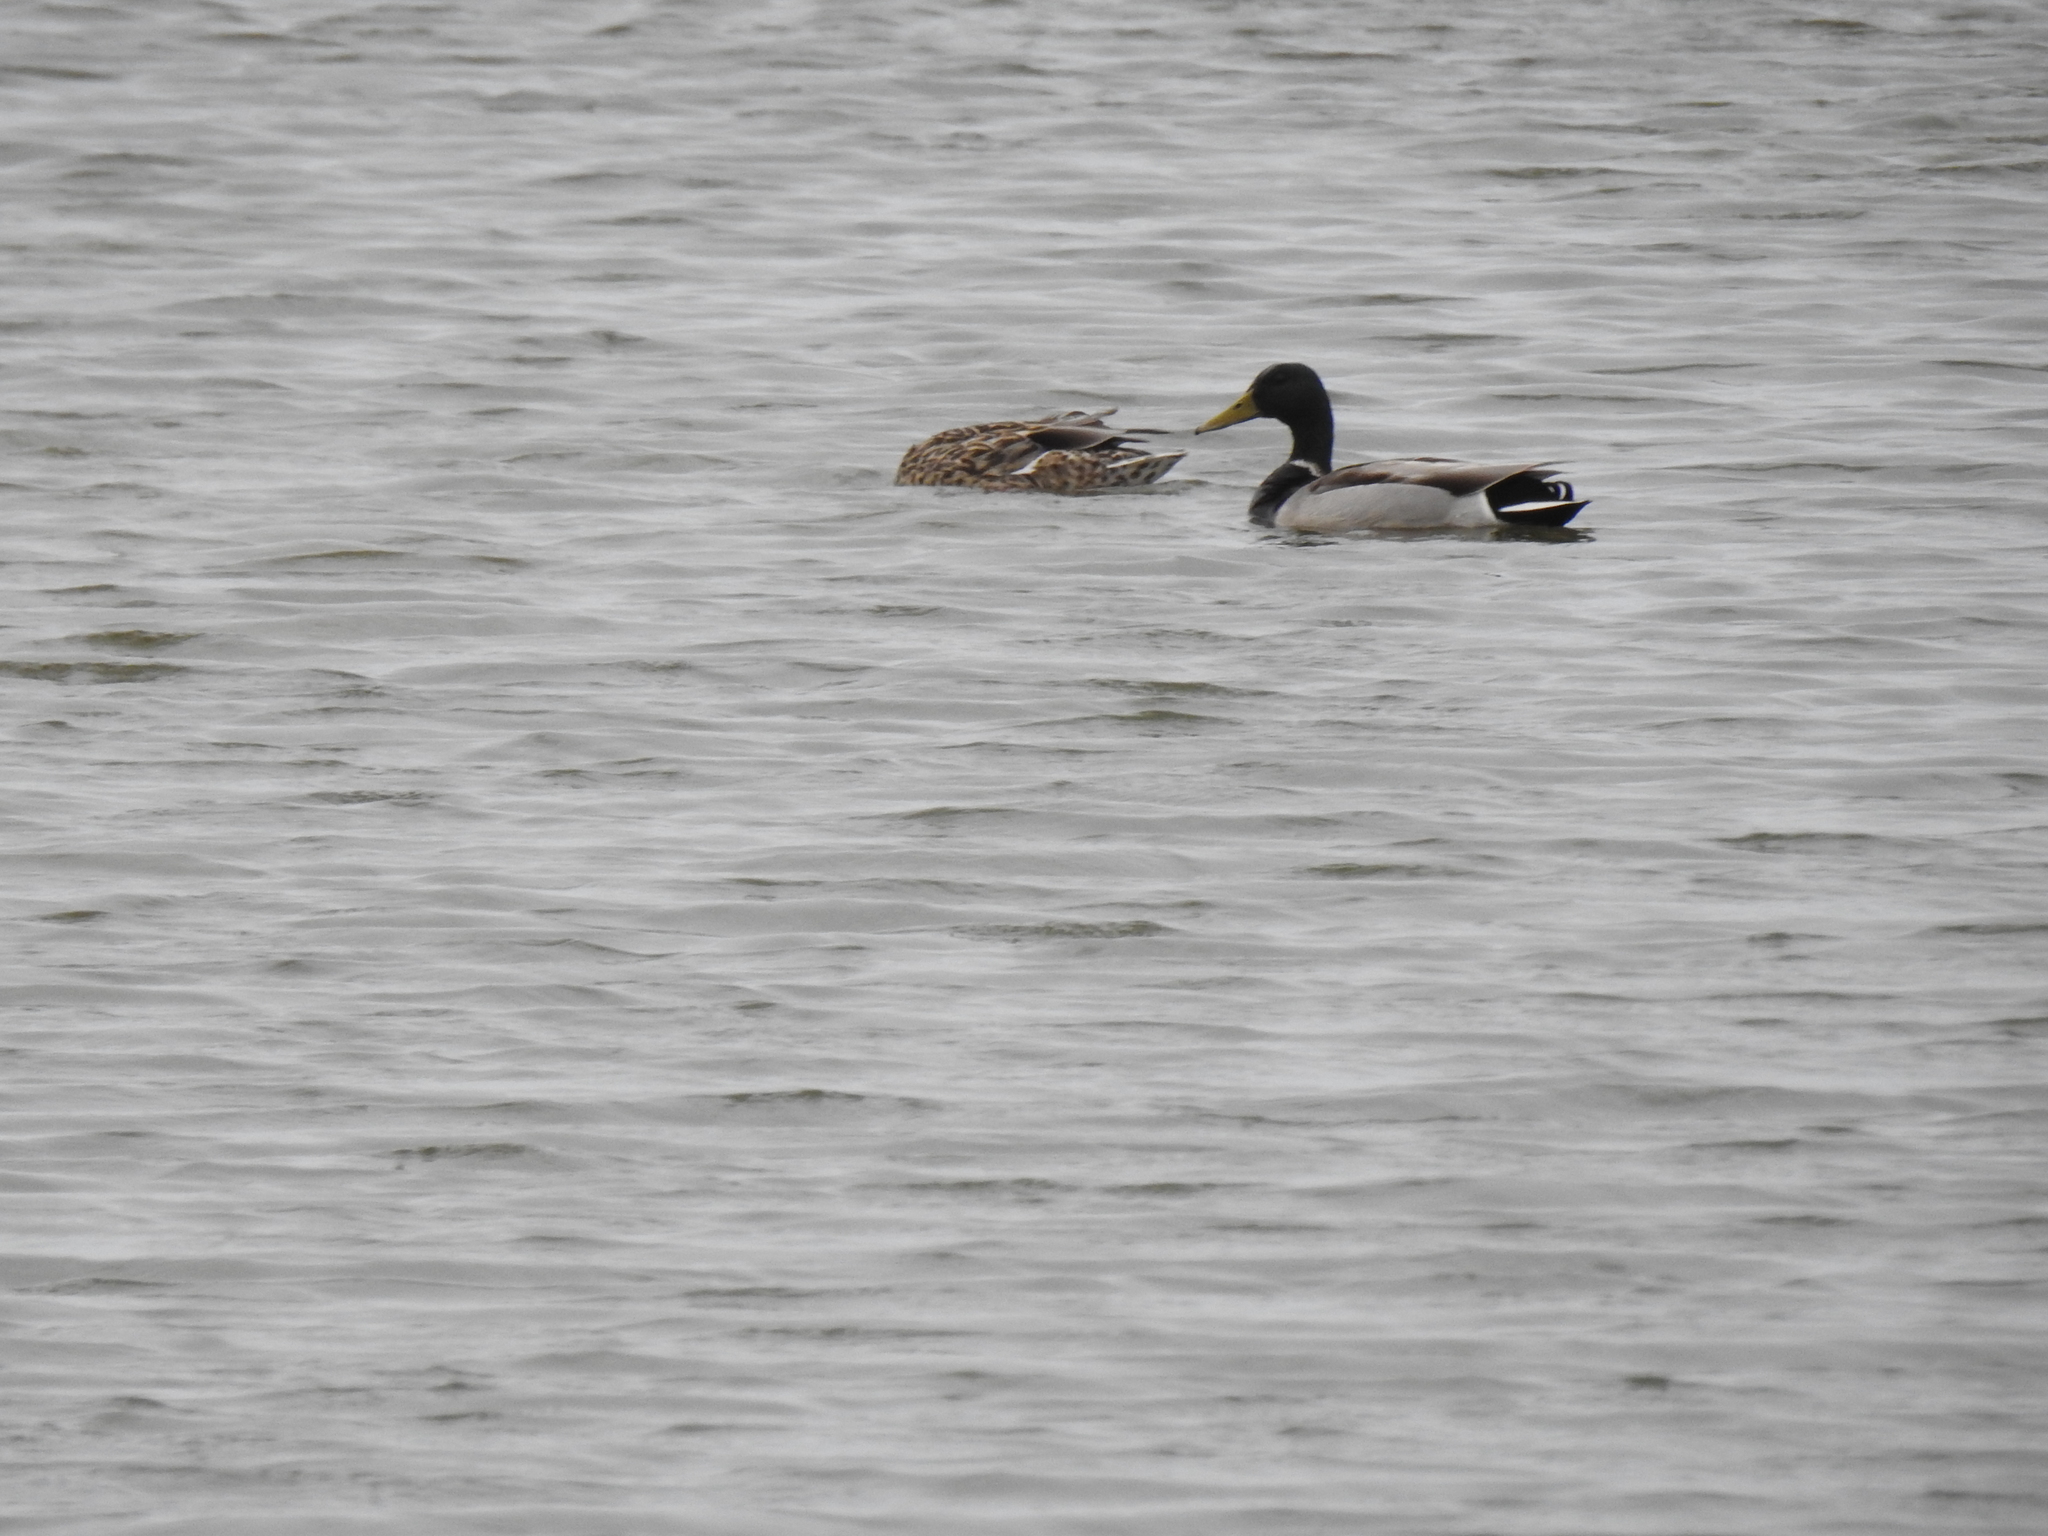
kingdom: Animalia
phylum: Chordata
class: Aves
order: Anseriformes
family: Anatidae
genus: Anas
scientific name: Anas platyrhynchos
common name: Mallard
